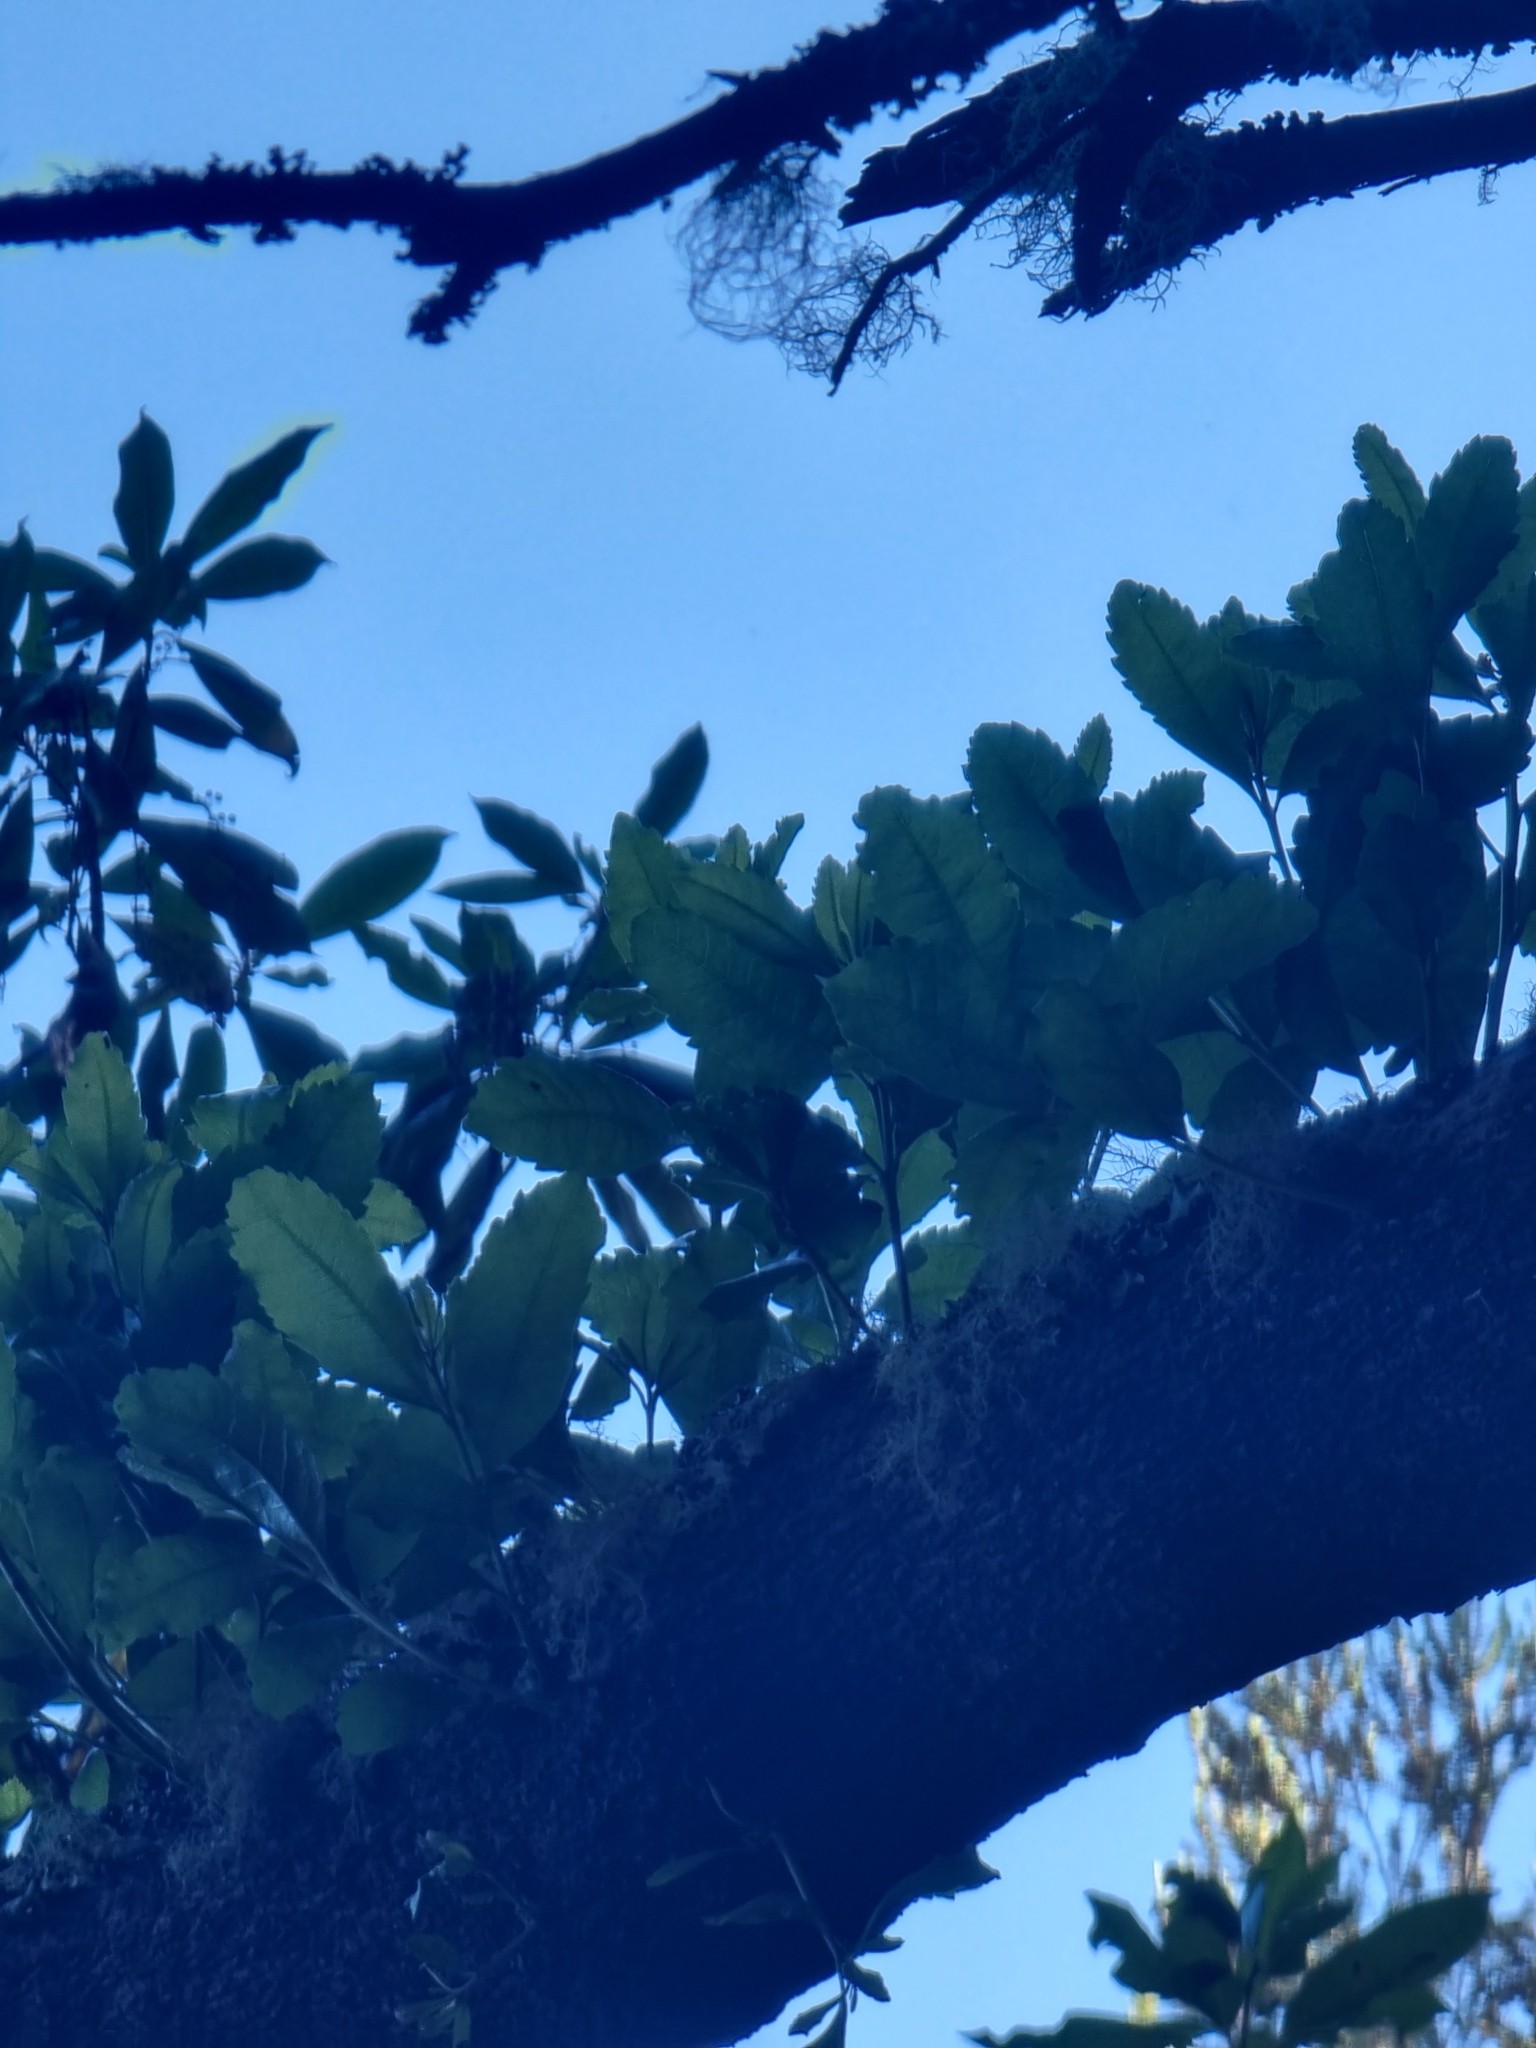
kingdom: Plantae
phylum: Tracheophyta
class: Magnoliopsida
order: Fagales
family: Myricaceae
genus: Morella
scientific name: Morella faya
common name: Firetree
